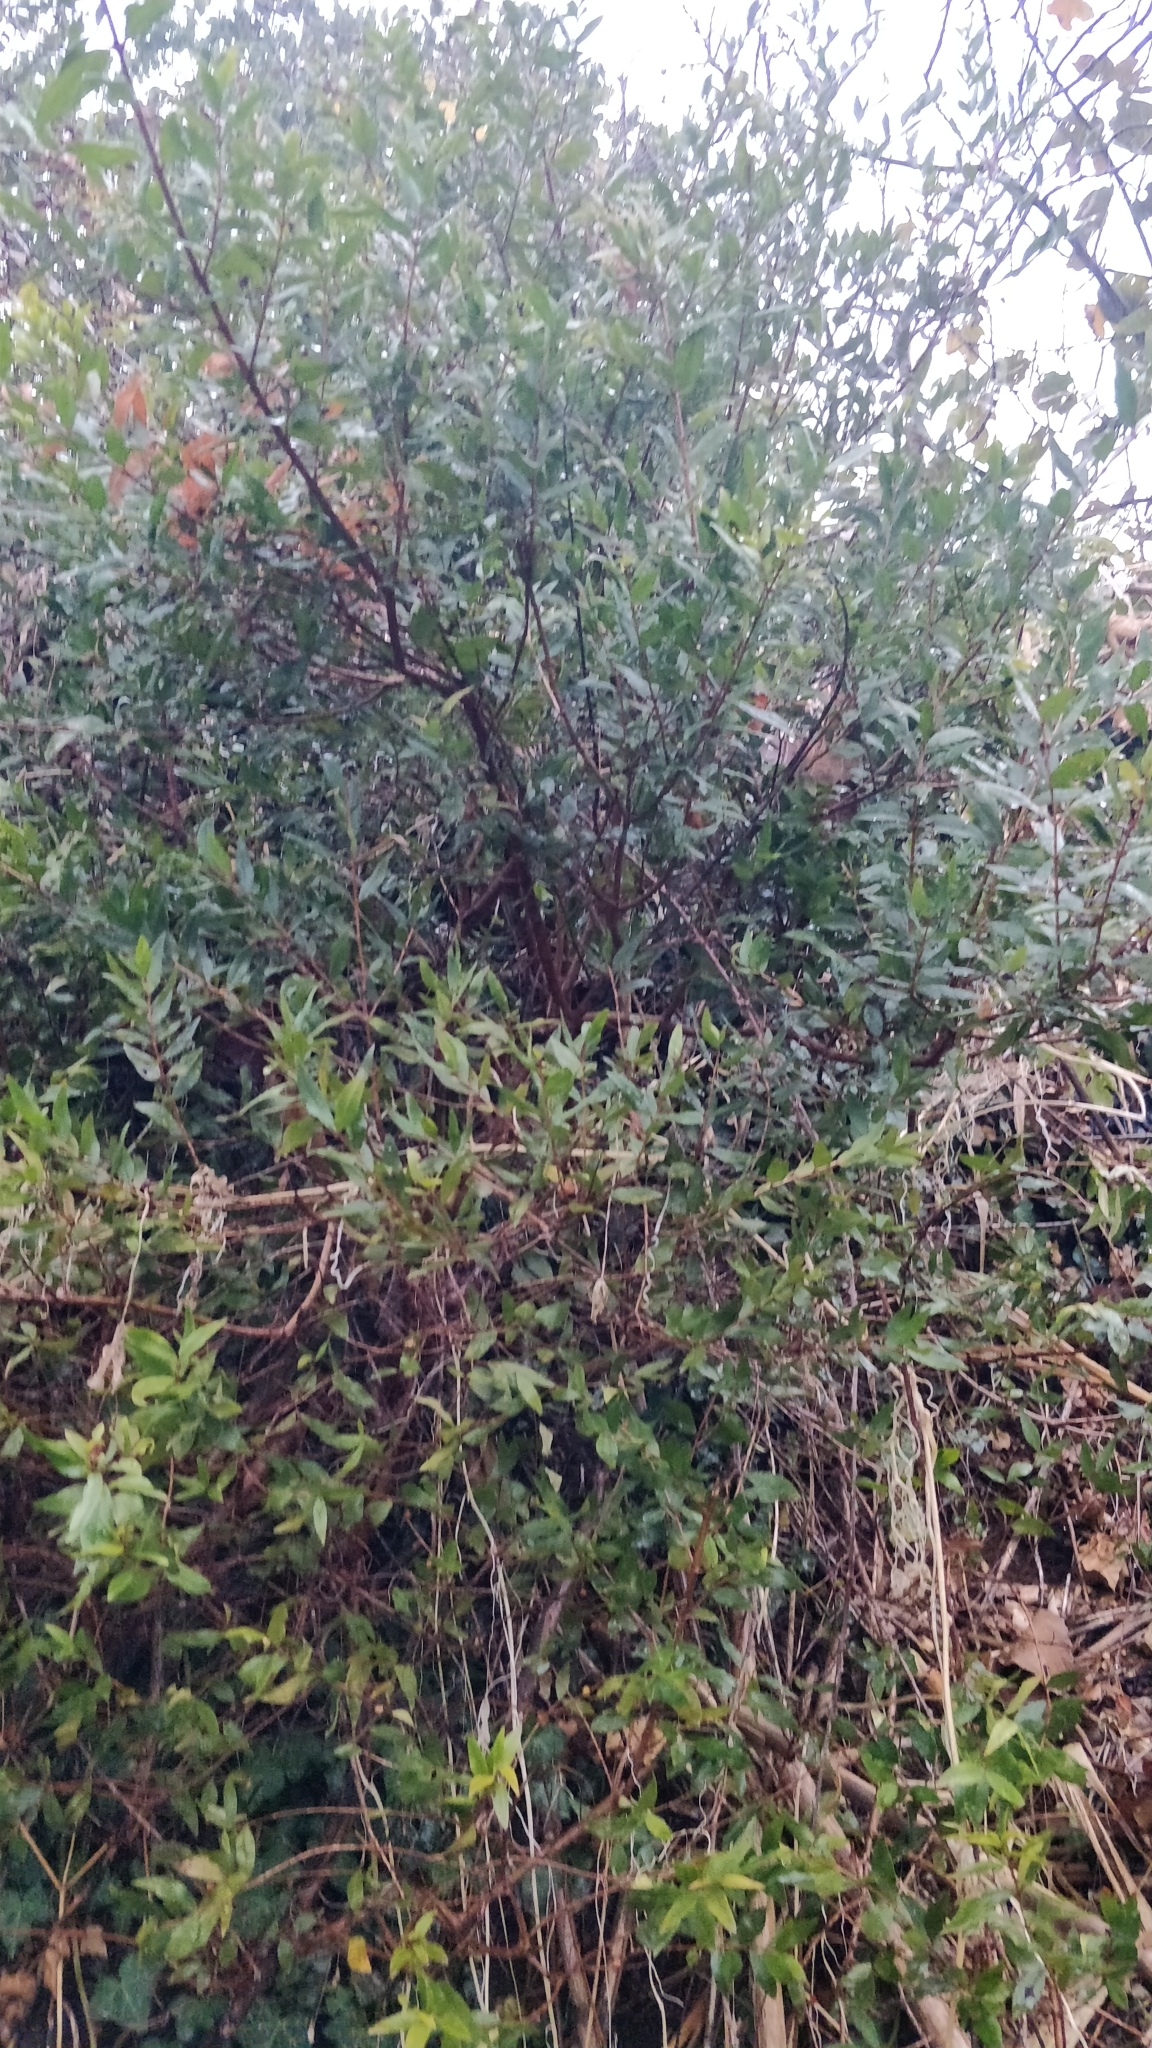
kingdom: Plantae
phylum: Tracheophyta
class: Magnoliopsida
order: Myrtales
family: Myrtaceae
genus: Myrtus
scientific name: Myrtus communis
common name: Myrtle
